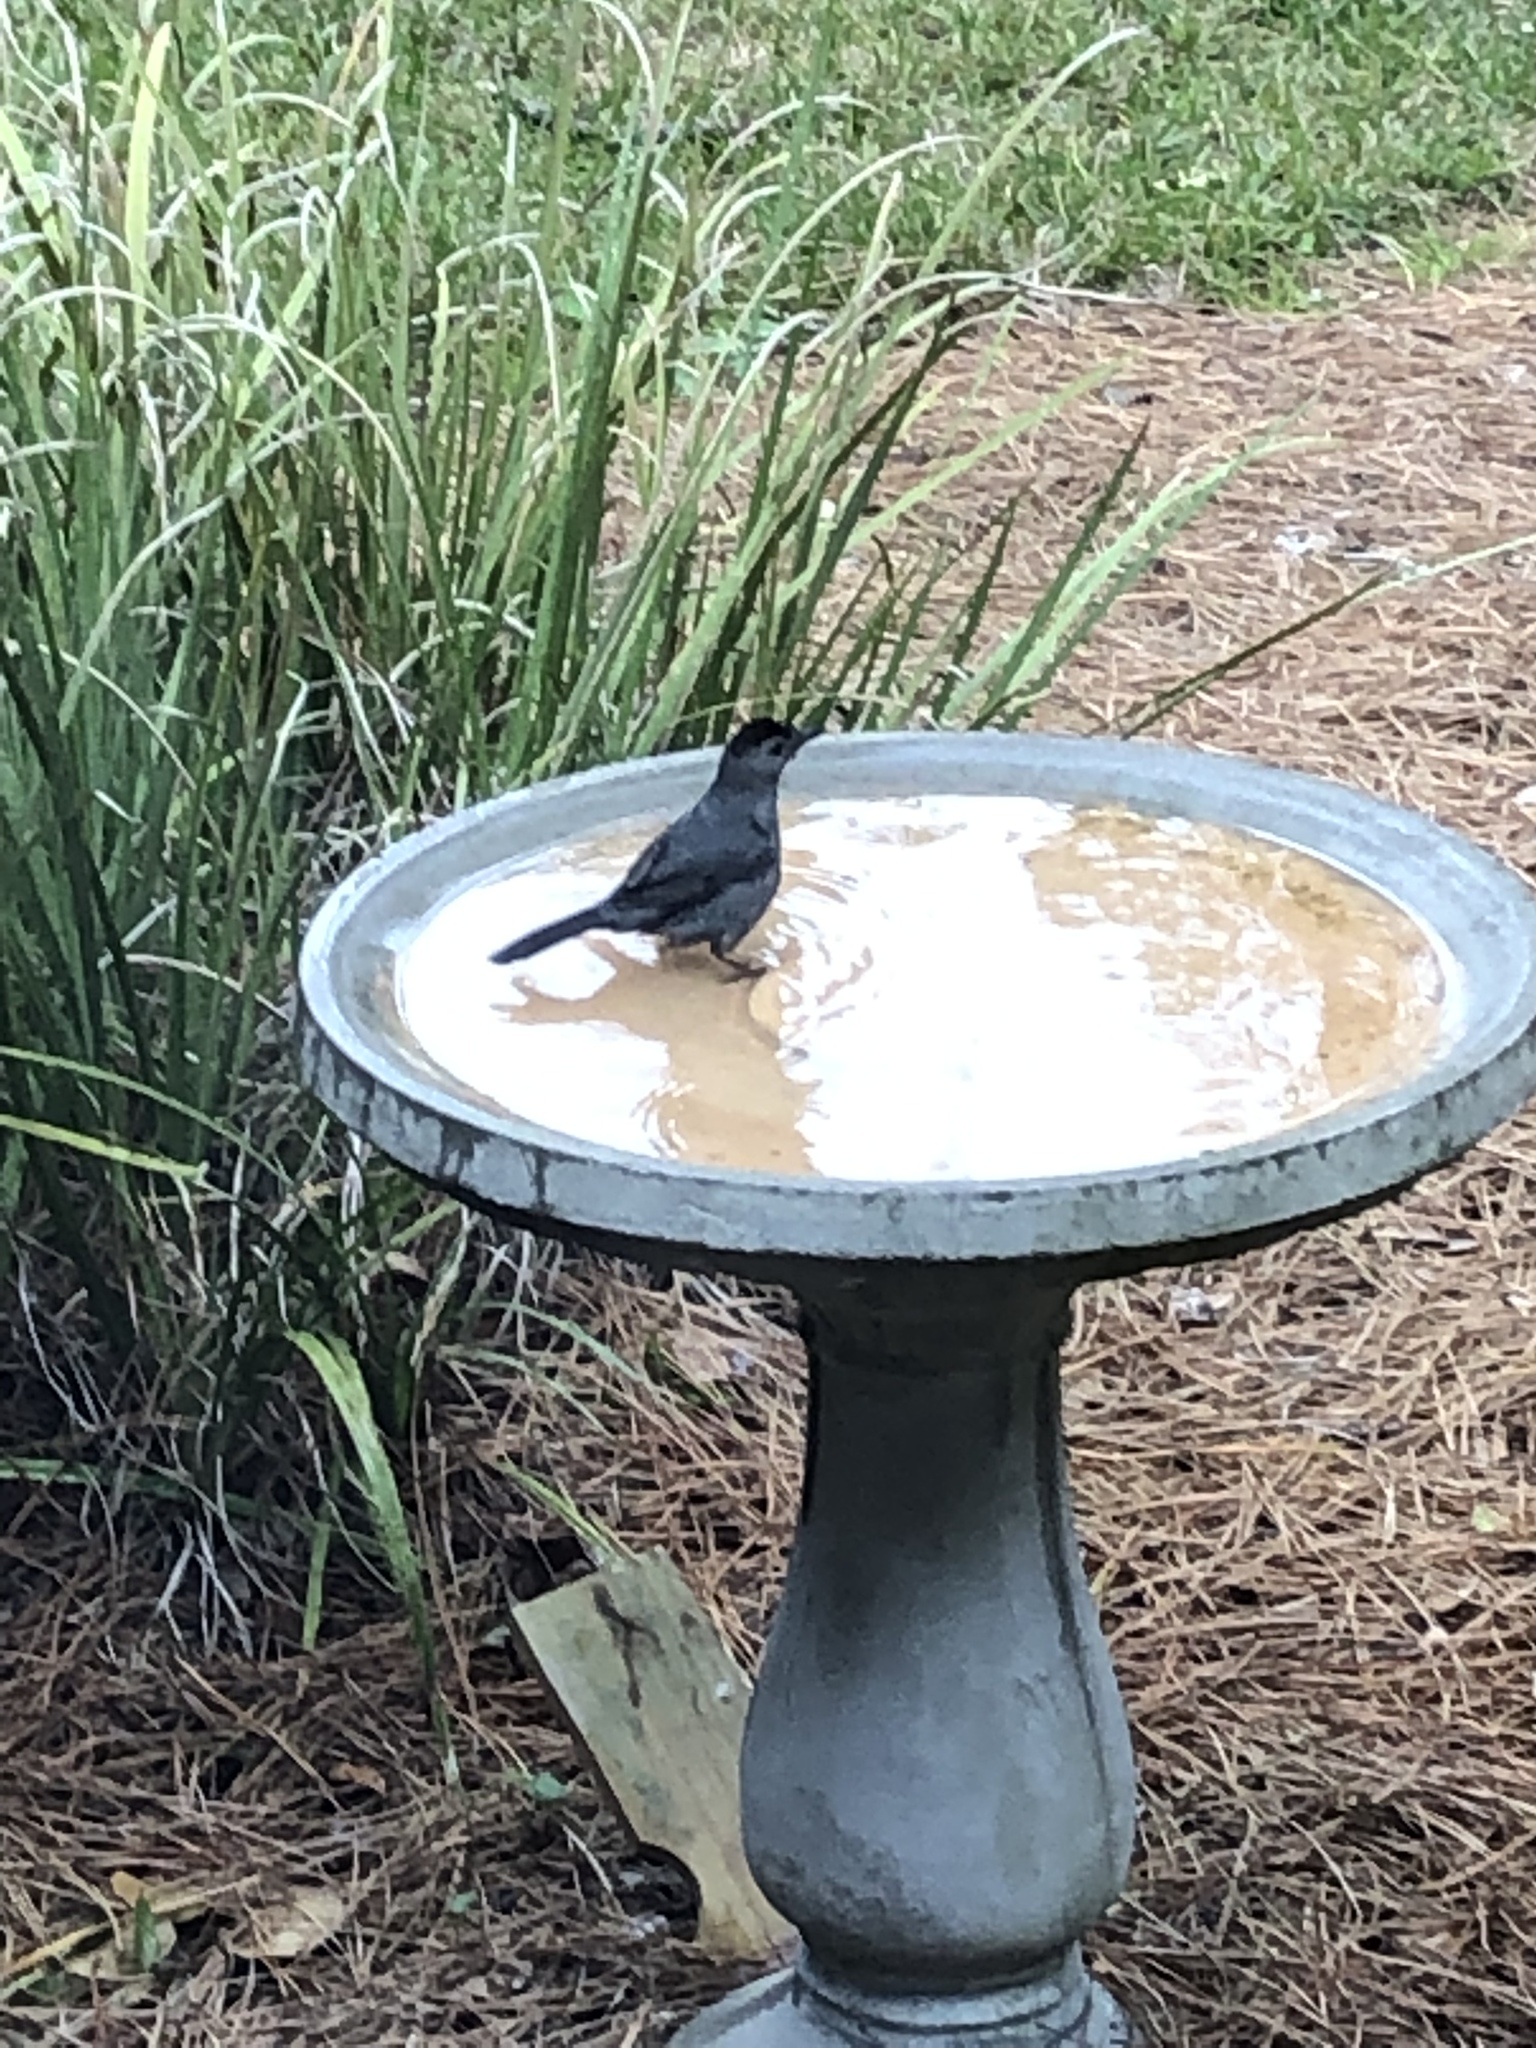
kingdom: Animalia
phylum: Chordata
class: Aves
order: Passeriformes
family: Mimidae
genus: Dumetella
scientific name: Dumetella carolinensis
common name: Gray catbird
